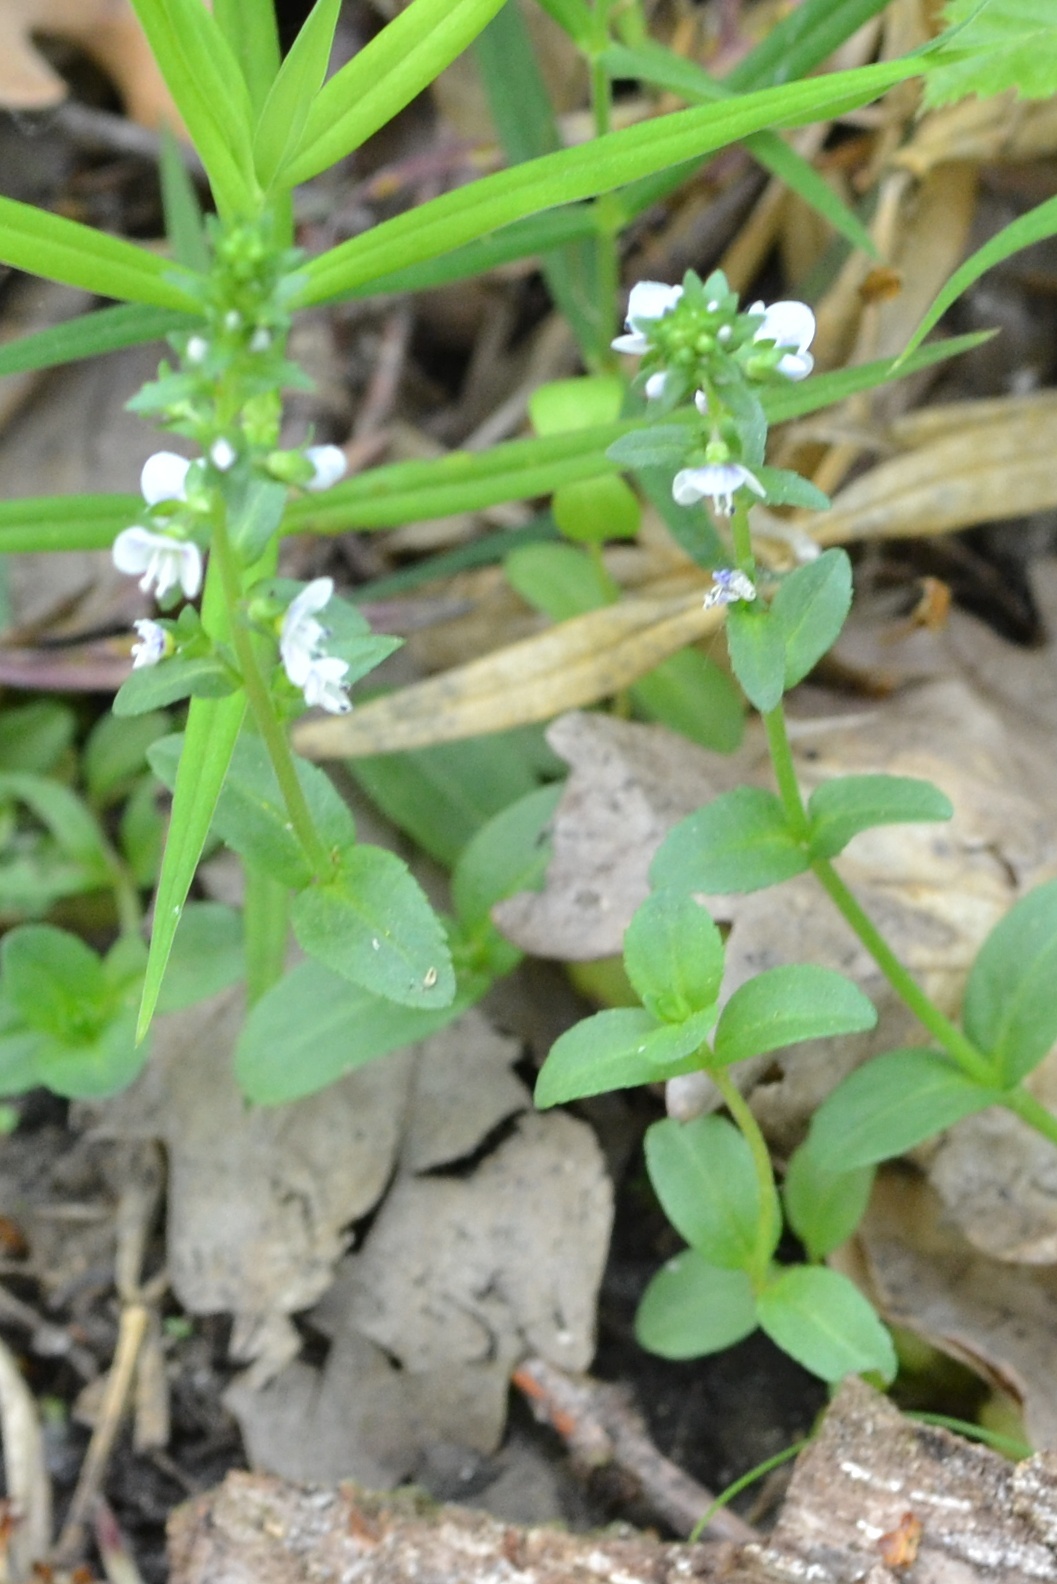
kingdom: Plantae
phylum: Tracheophyta
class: Magnoliopsida
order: Lamiales
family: Plantaginaceae
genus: Veronica
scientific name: Veronica serpyllifolia
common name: Thyme-leaved speedwell
